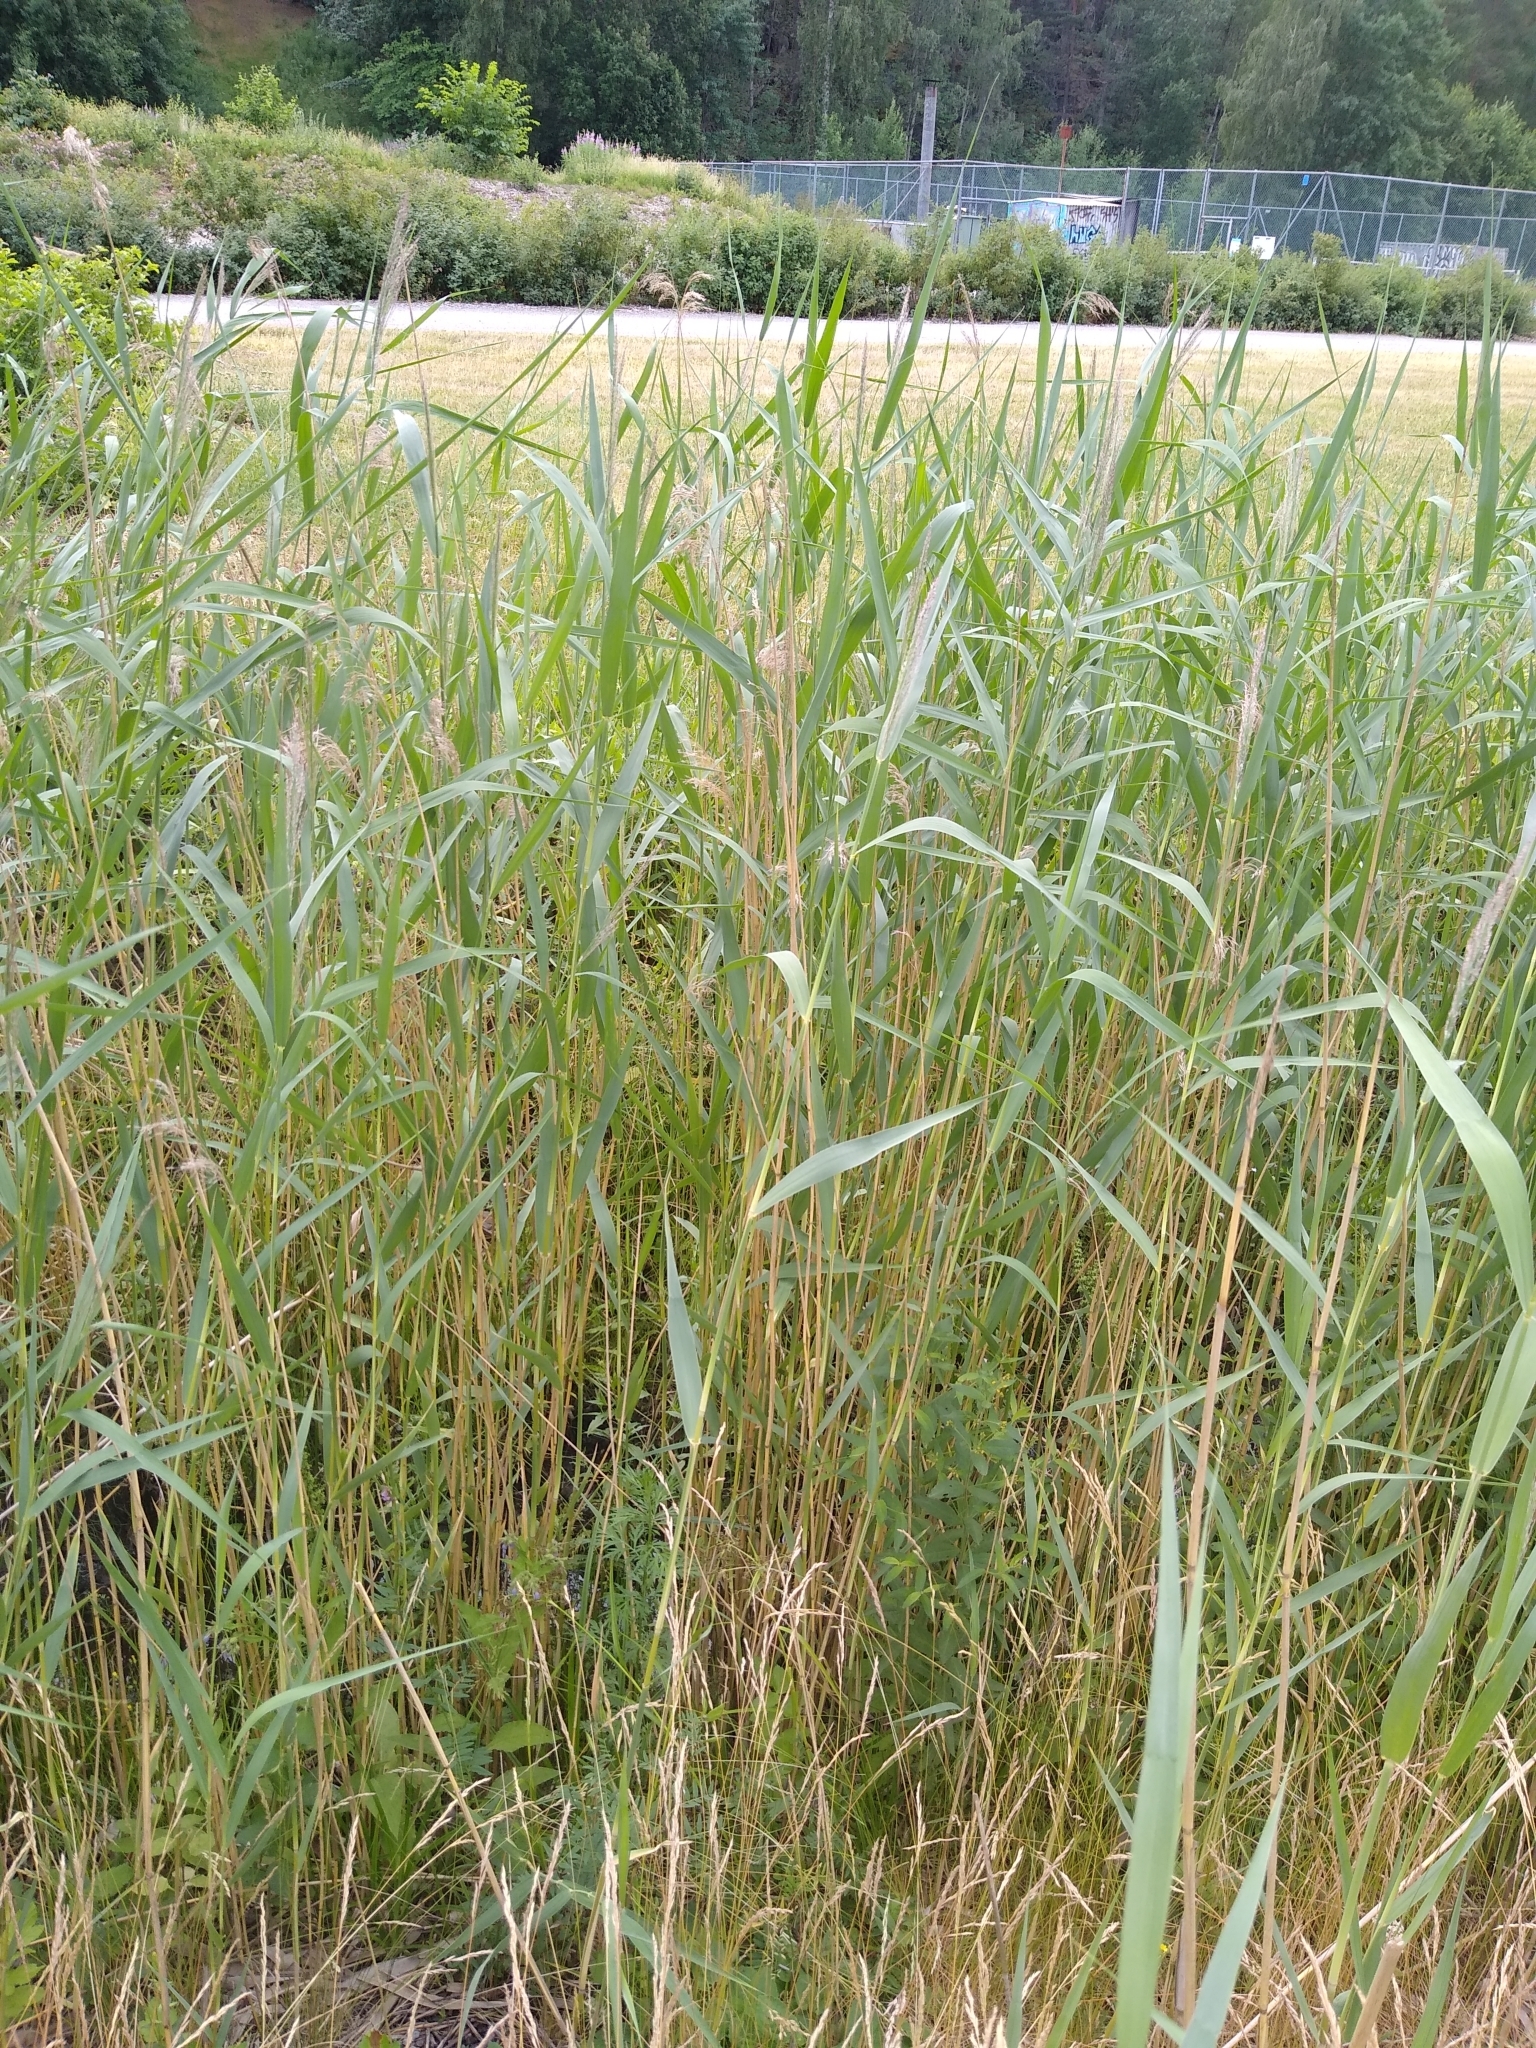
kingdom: Plantae
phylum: Tracheophyta
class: Liliopsida
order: Poales
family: Poaceae
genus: Phragmites
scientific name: Phragmites australis
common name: Common reed
